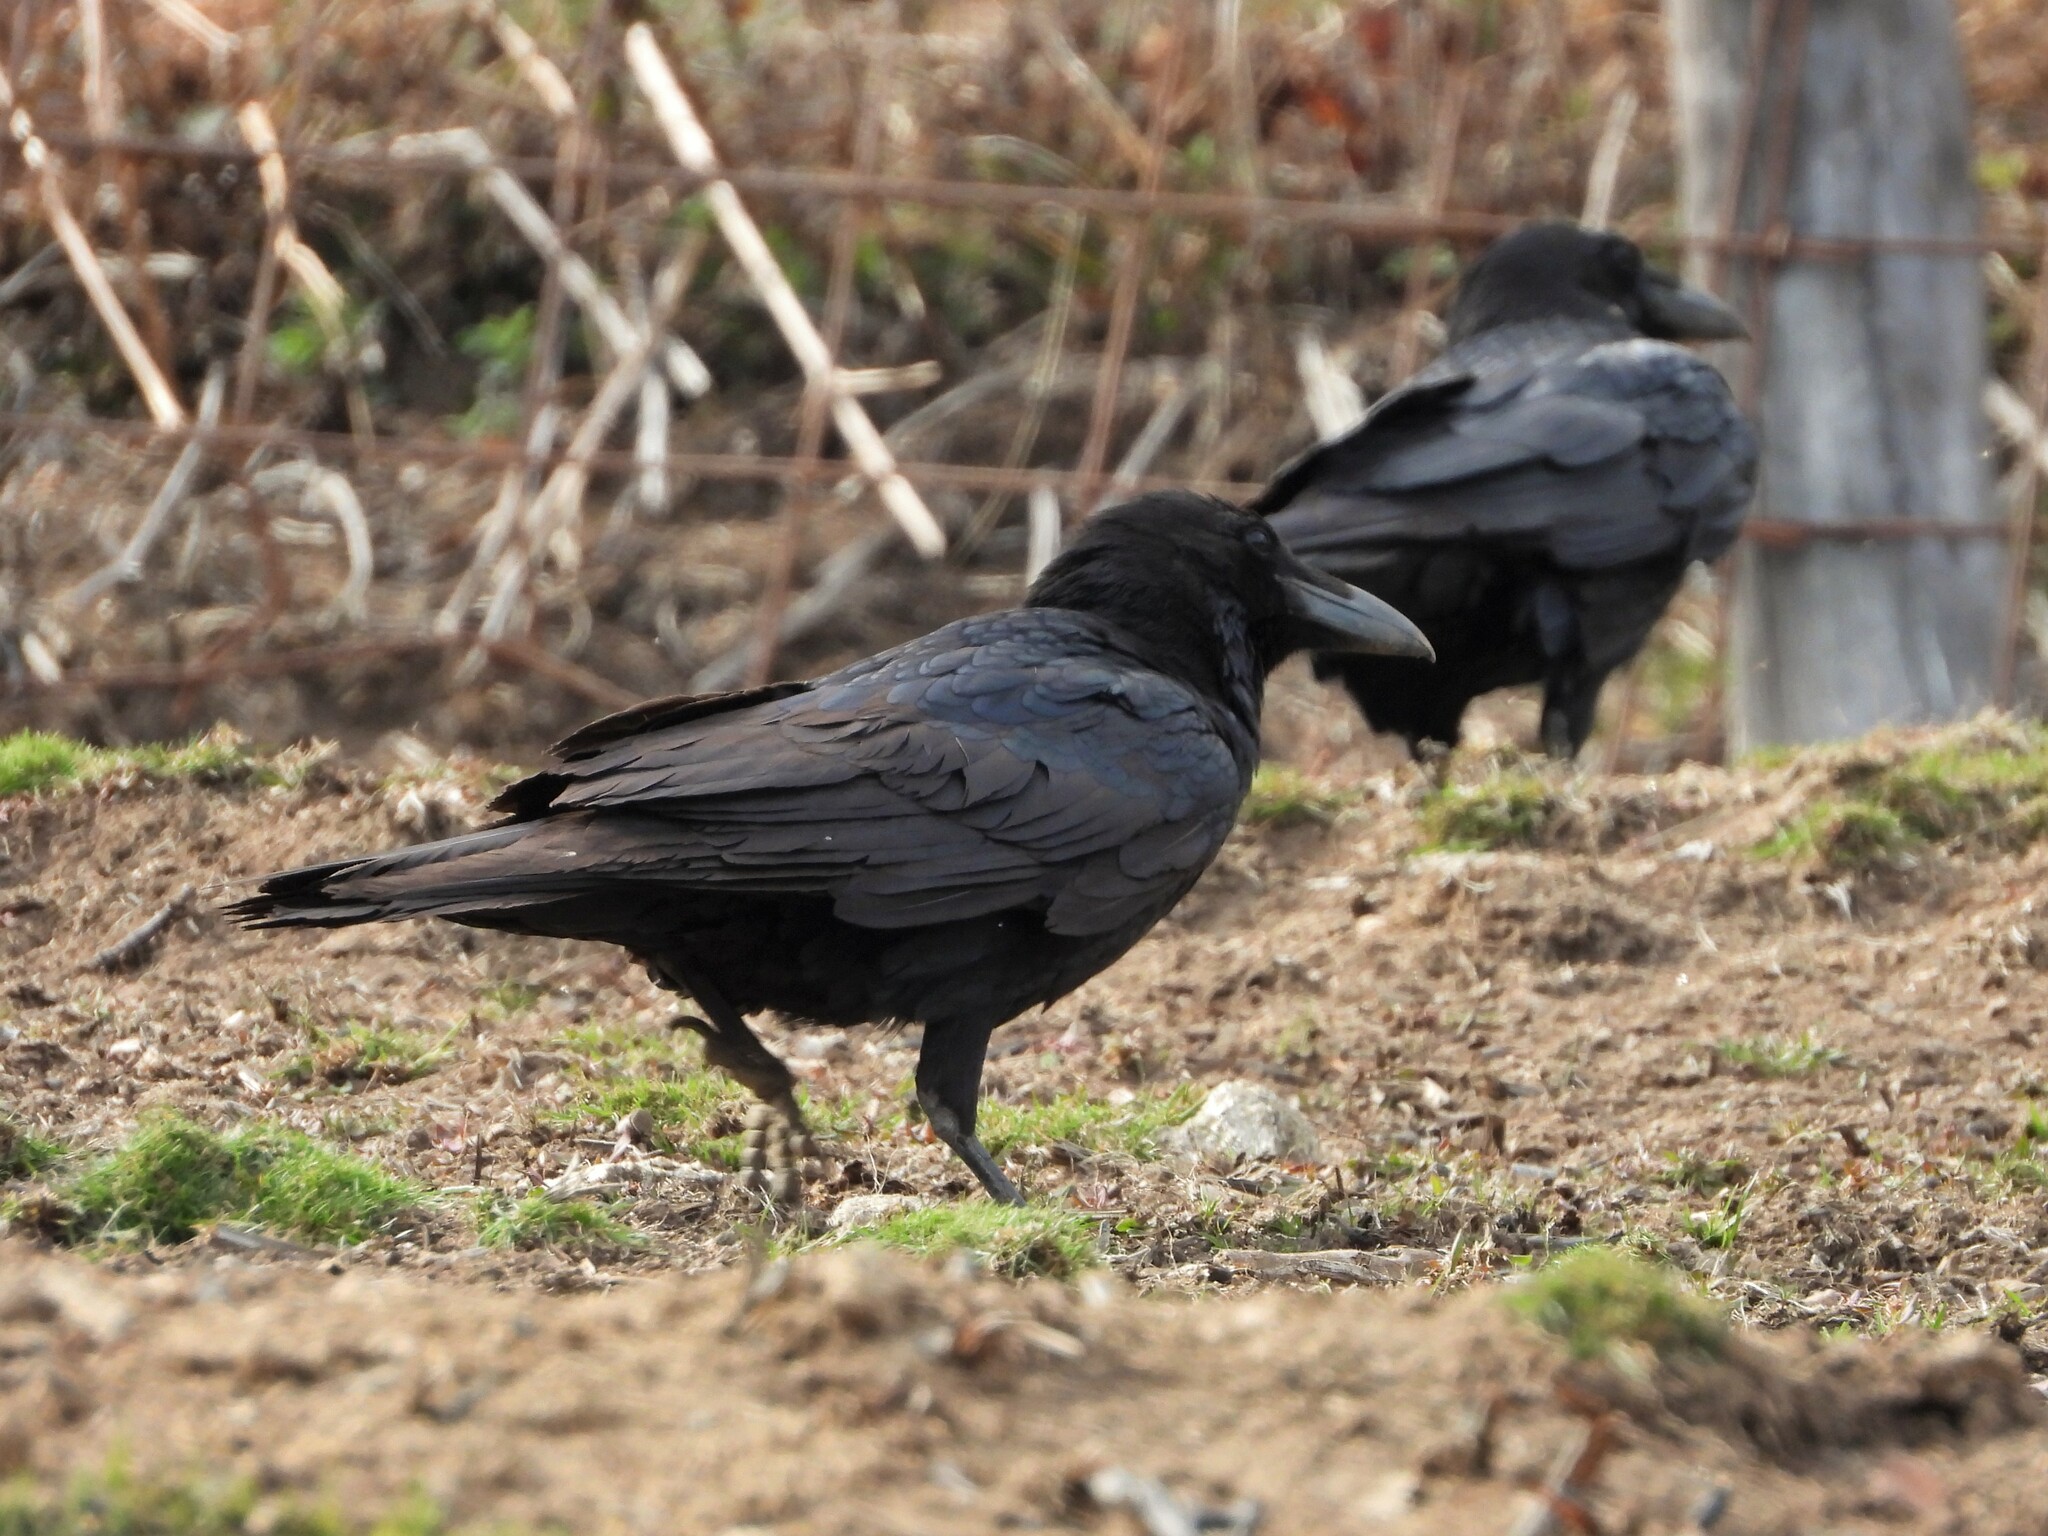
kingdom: Animalia
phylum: Chordata
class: Aves
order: Passeriformes
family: Corvidae
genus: Corvus
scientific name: Corvus corax
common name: Common raven
